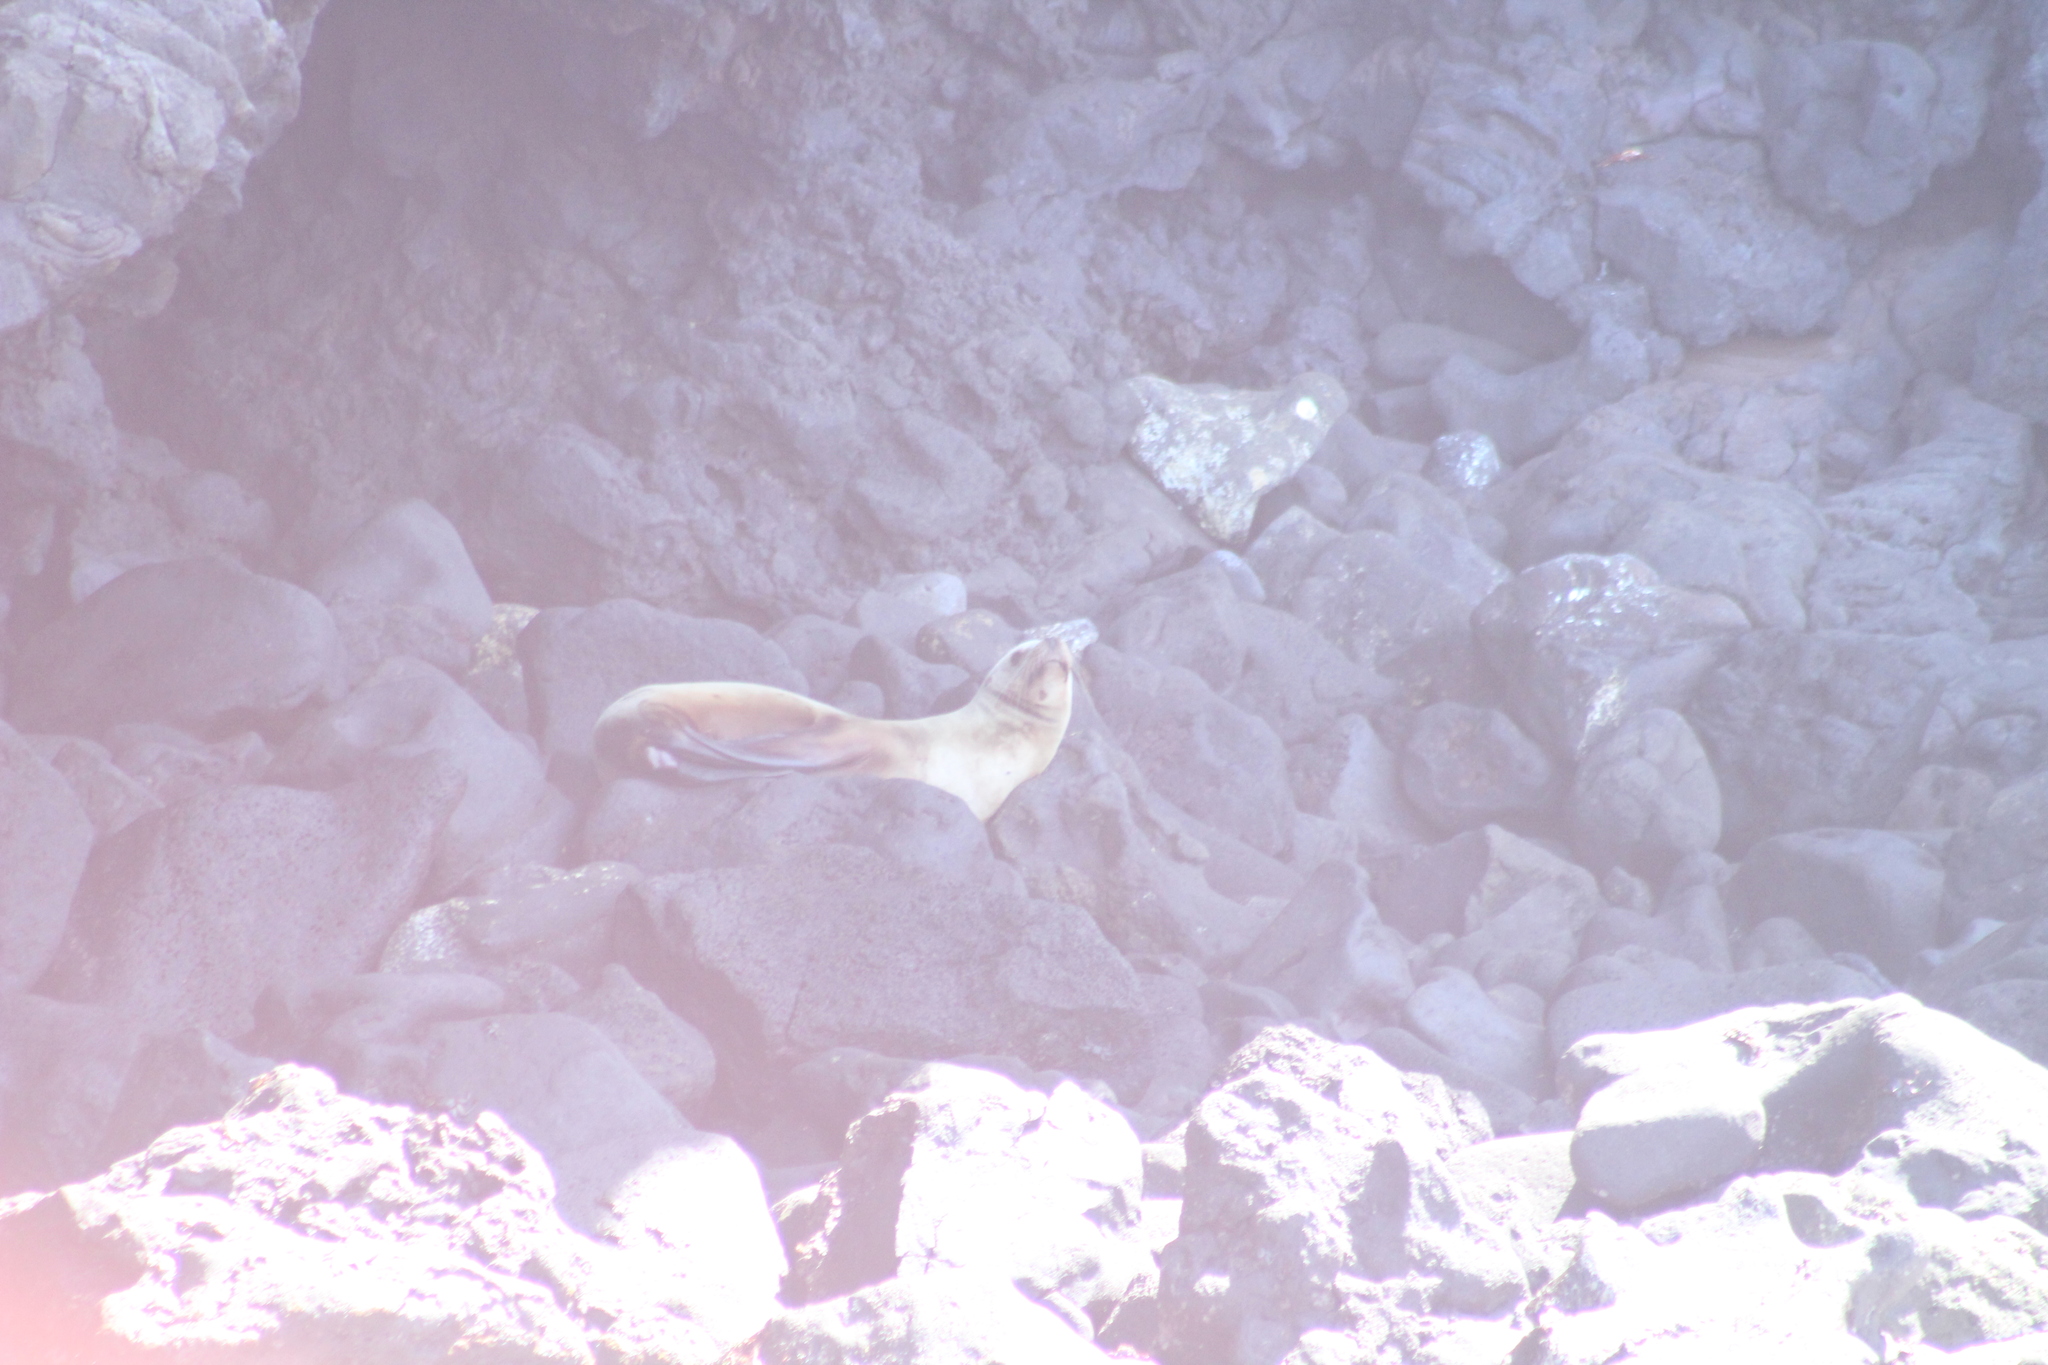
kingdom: Animalia
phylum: Chordata
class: Mammalia
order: Carnivora
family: Otariidae
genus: Zalophus
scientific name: Zalophus wollebaeki
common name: Galapagos sea lion
